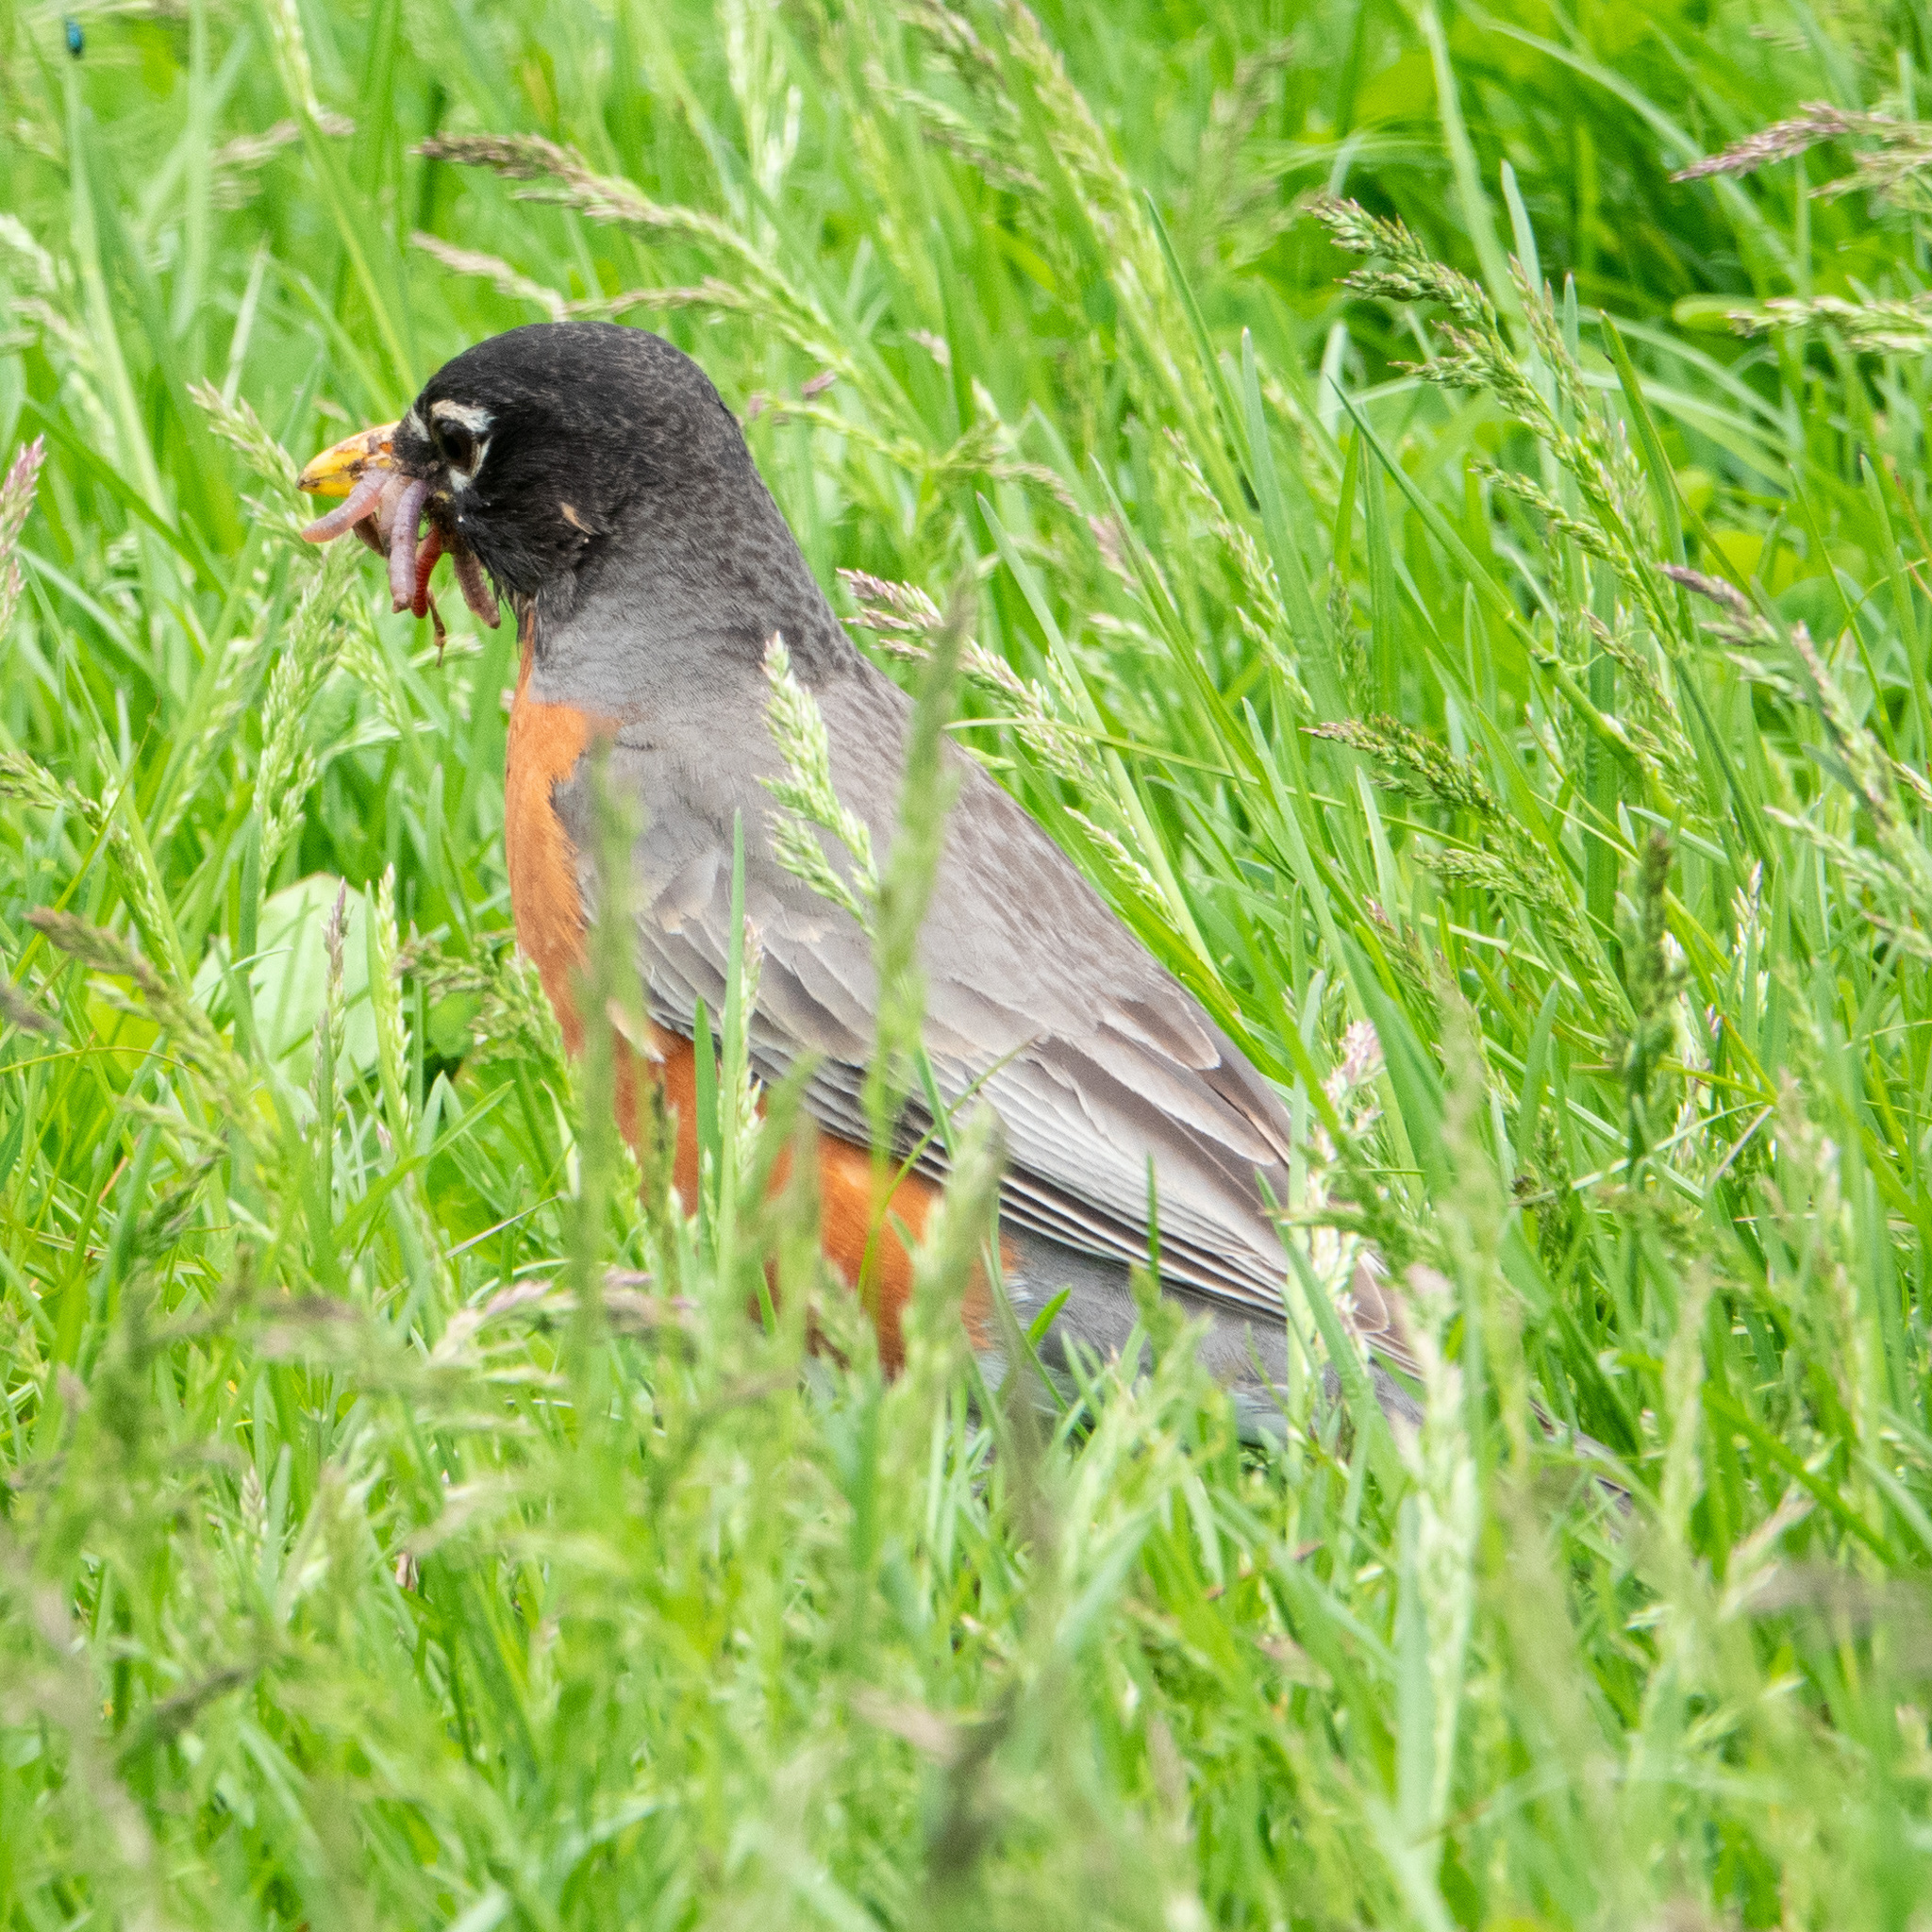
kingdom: Animalia
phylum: Chordata
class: Aves
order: Passeriformes
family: Turdidae
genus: Turdus
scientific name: Turdus migratorius
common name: American robin
